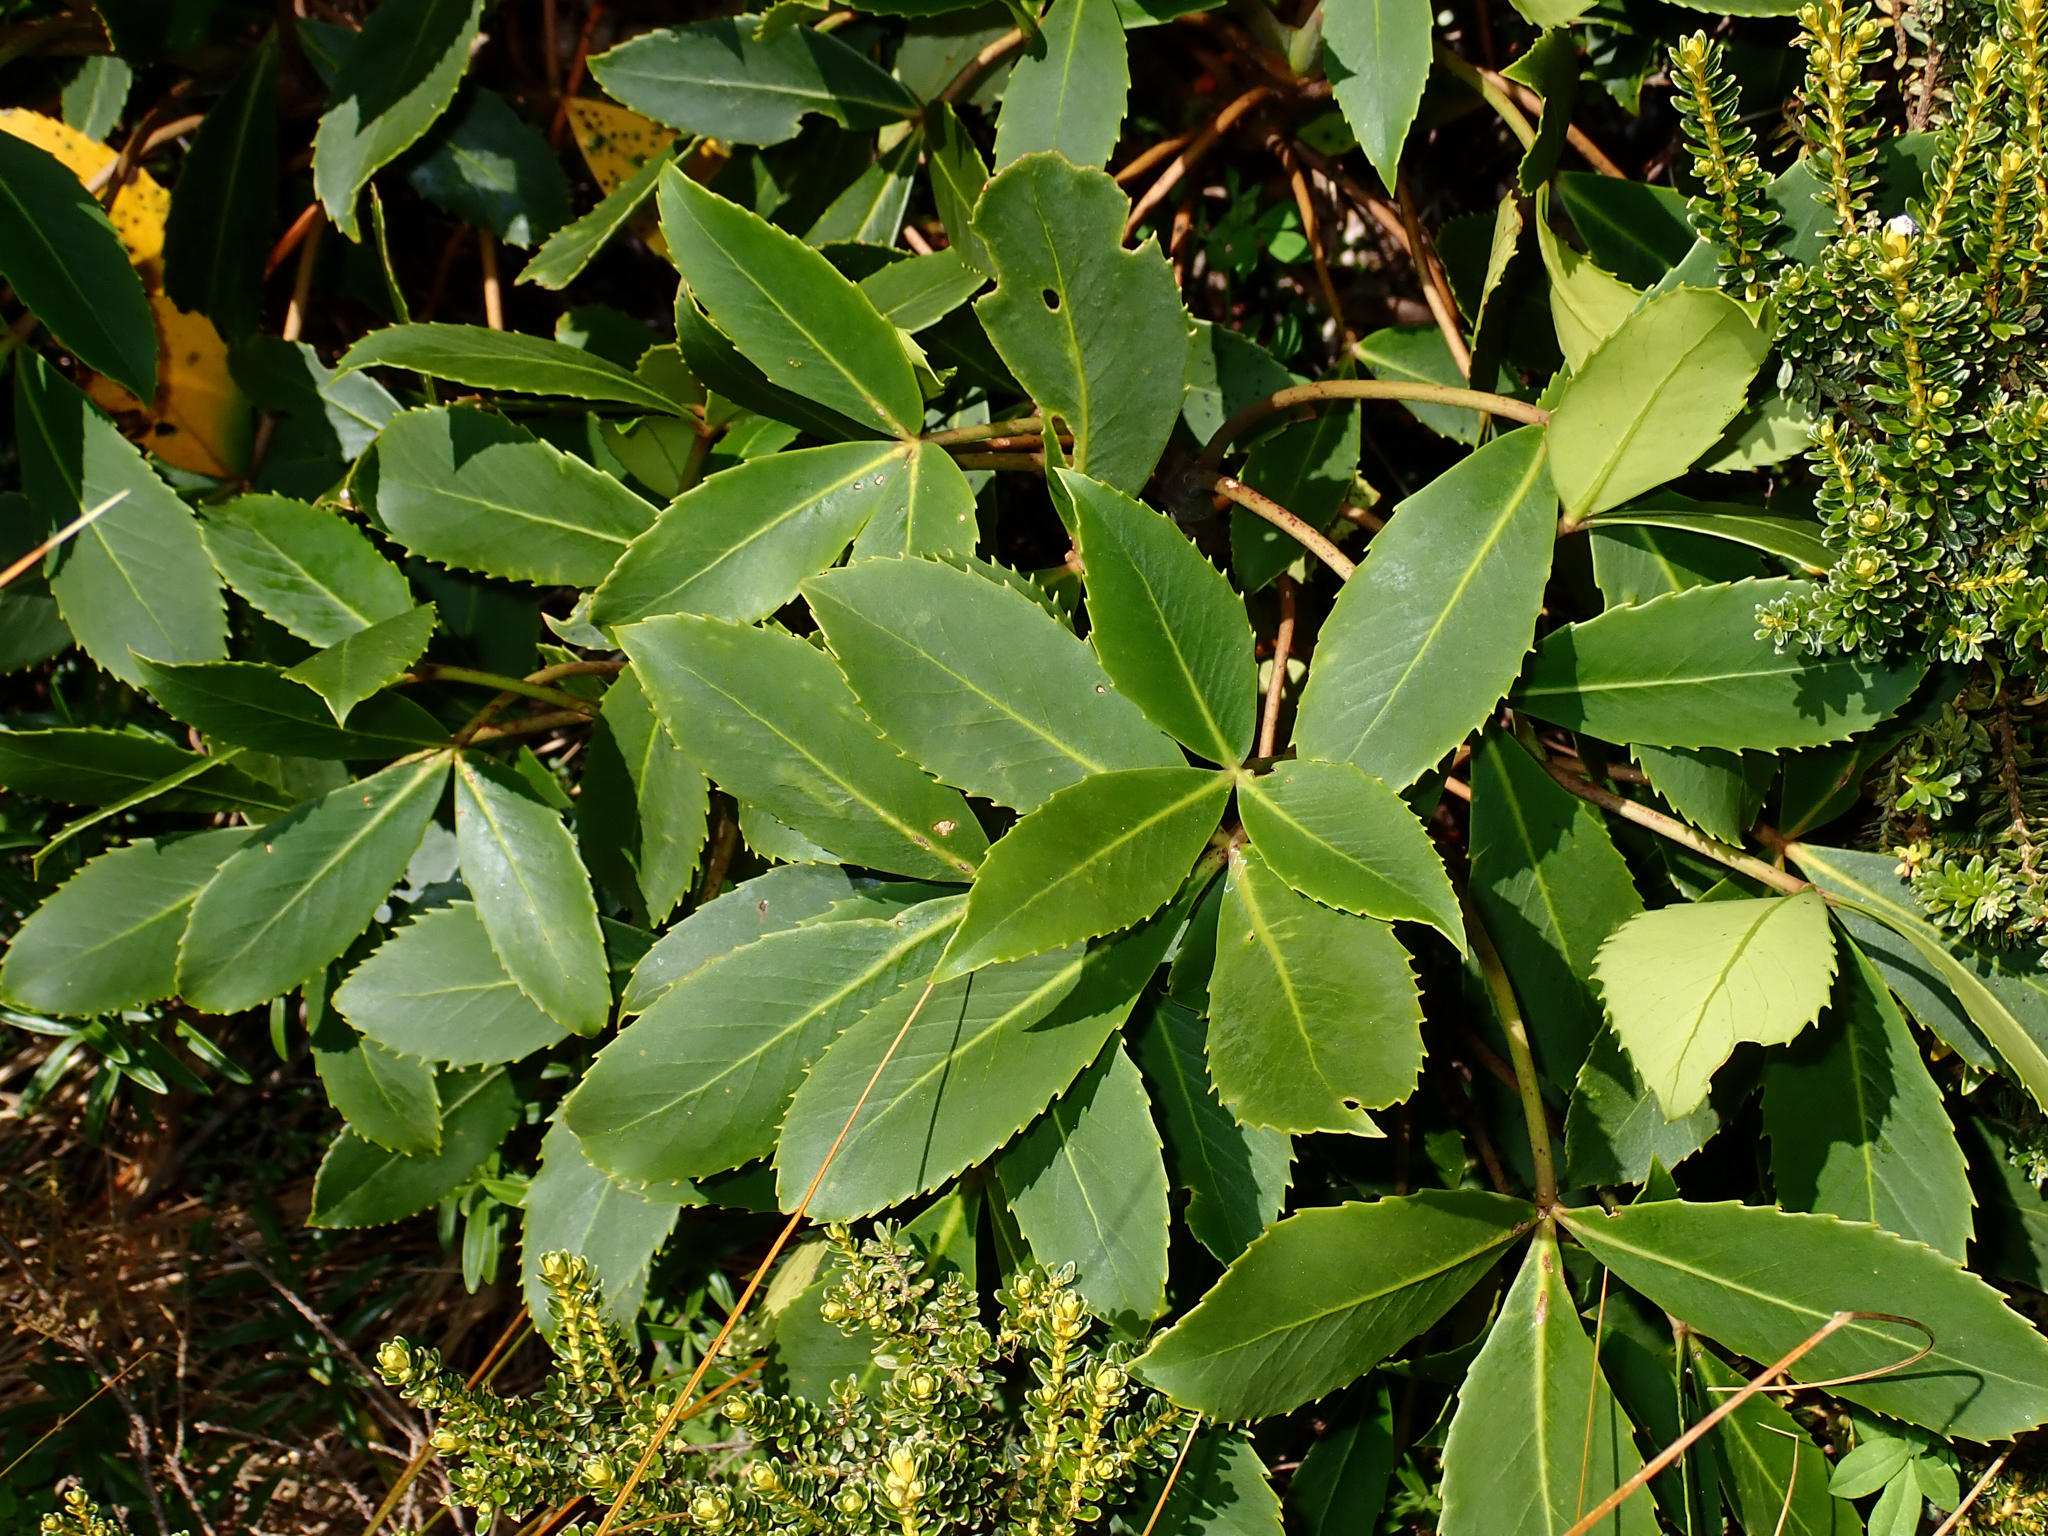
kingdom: Plantae
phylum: Tracheophyta
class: Magnoliopsida
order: Apiales
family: Araliaceae
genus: Neopanax
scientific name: Neopanax colensoi
